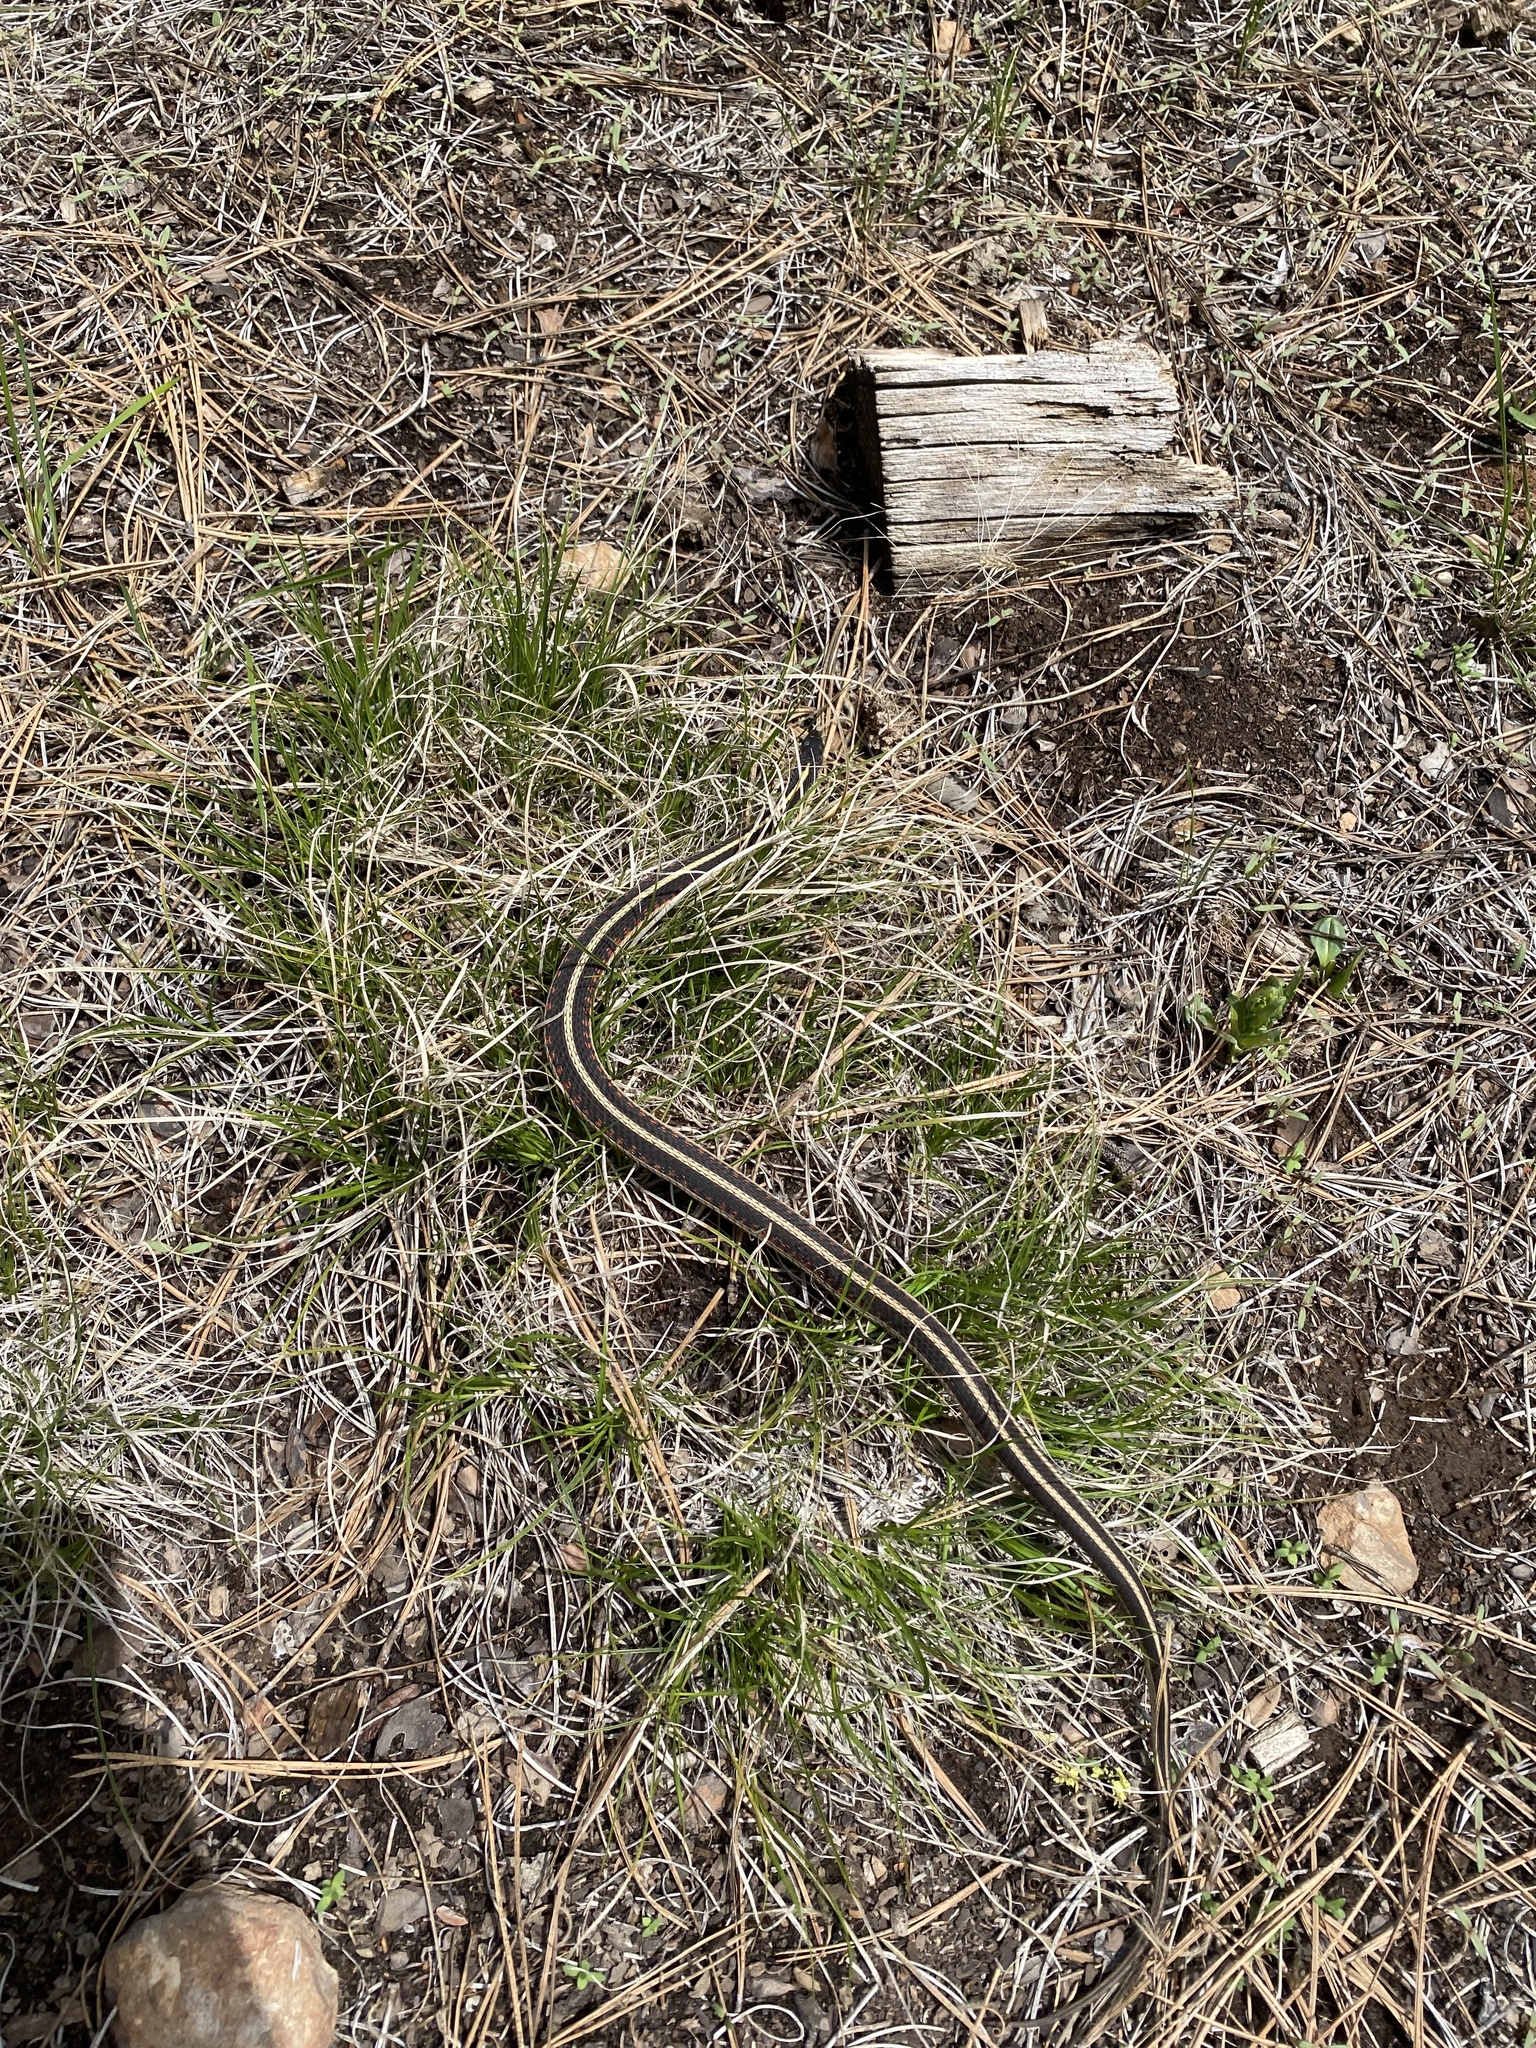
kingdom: Animalia
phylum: Chordata
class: Squamata
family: Colubridae
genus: Thamnophis
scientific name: Thamnophis sirtalis
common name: Common garter snake
